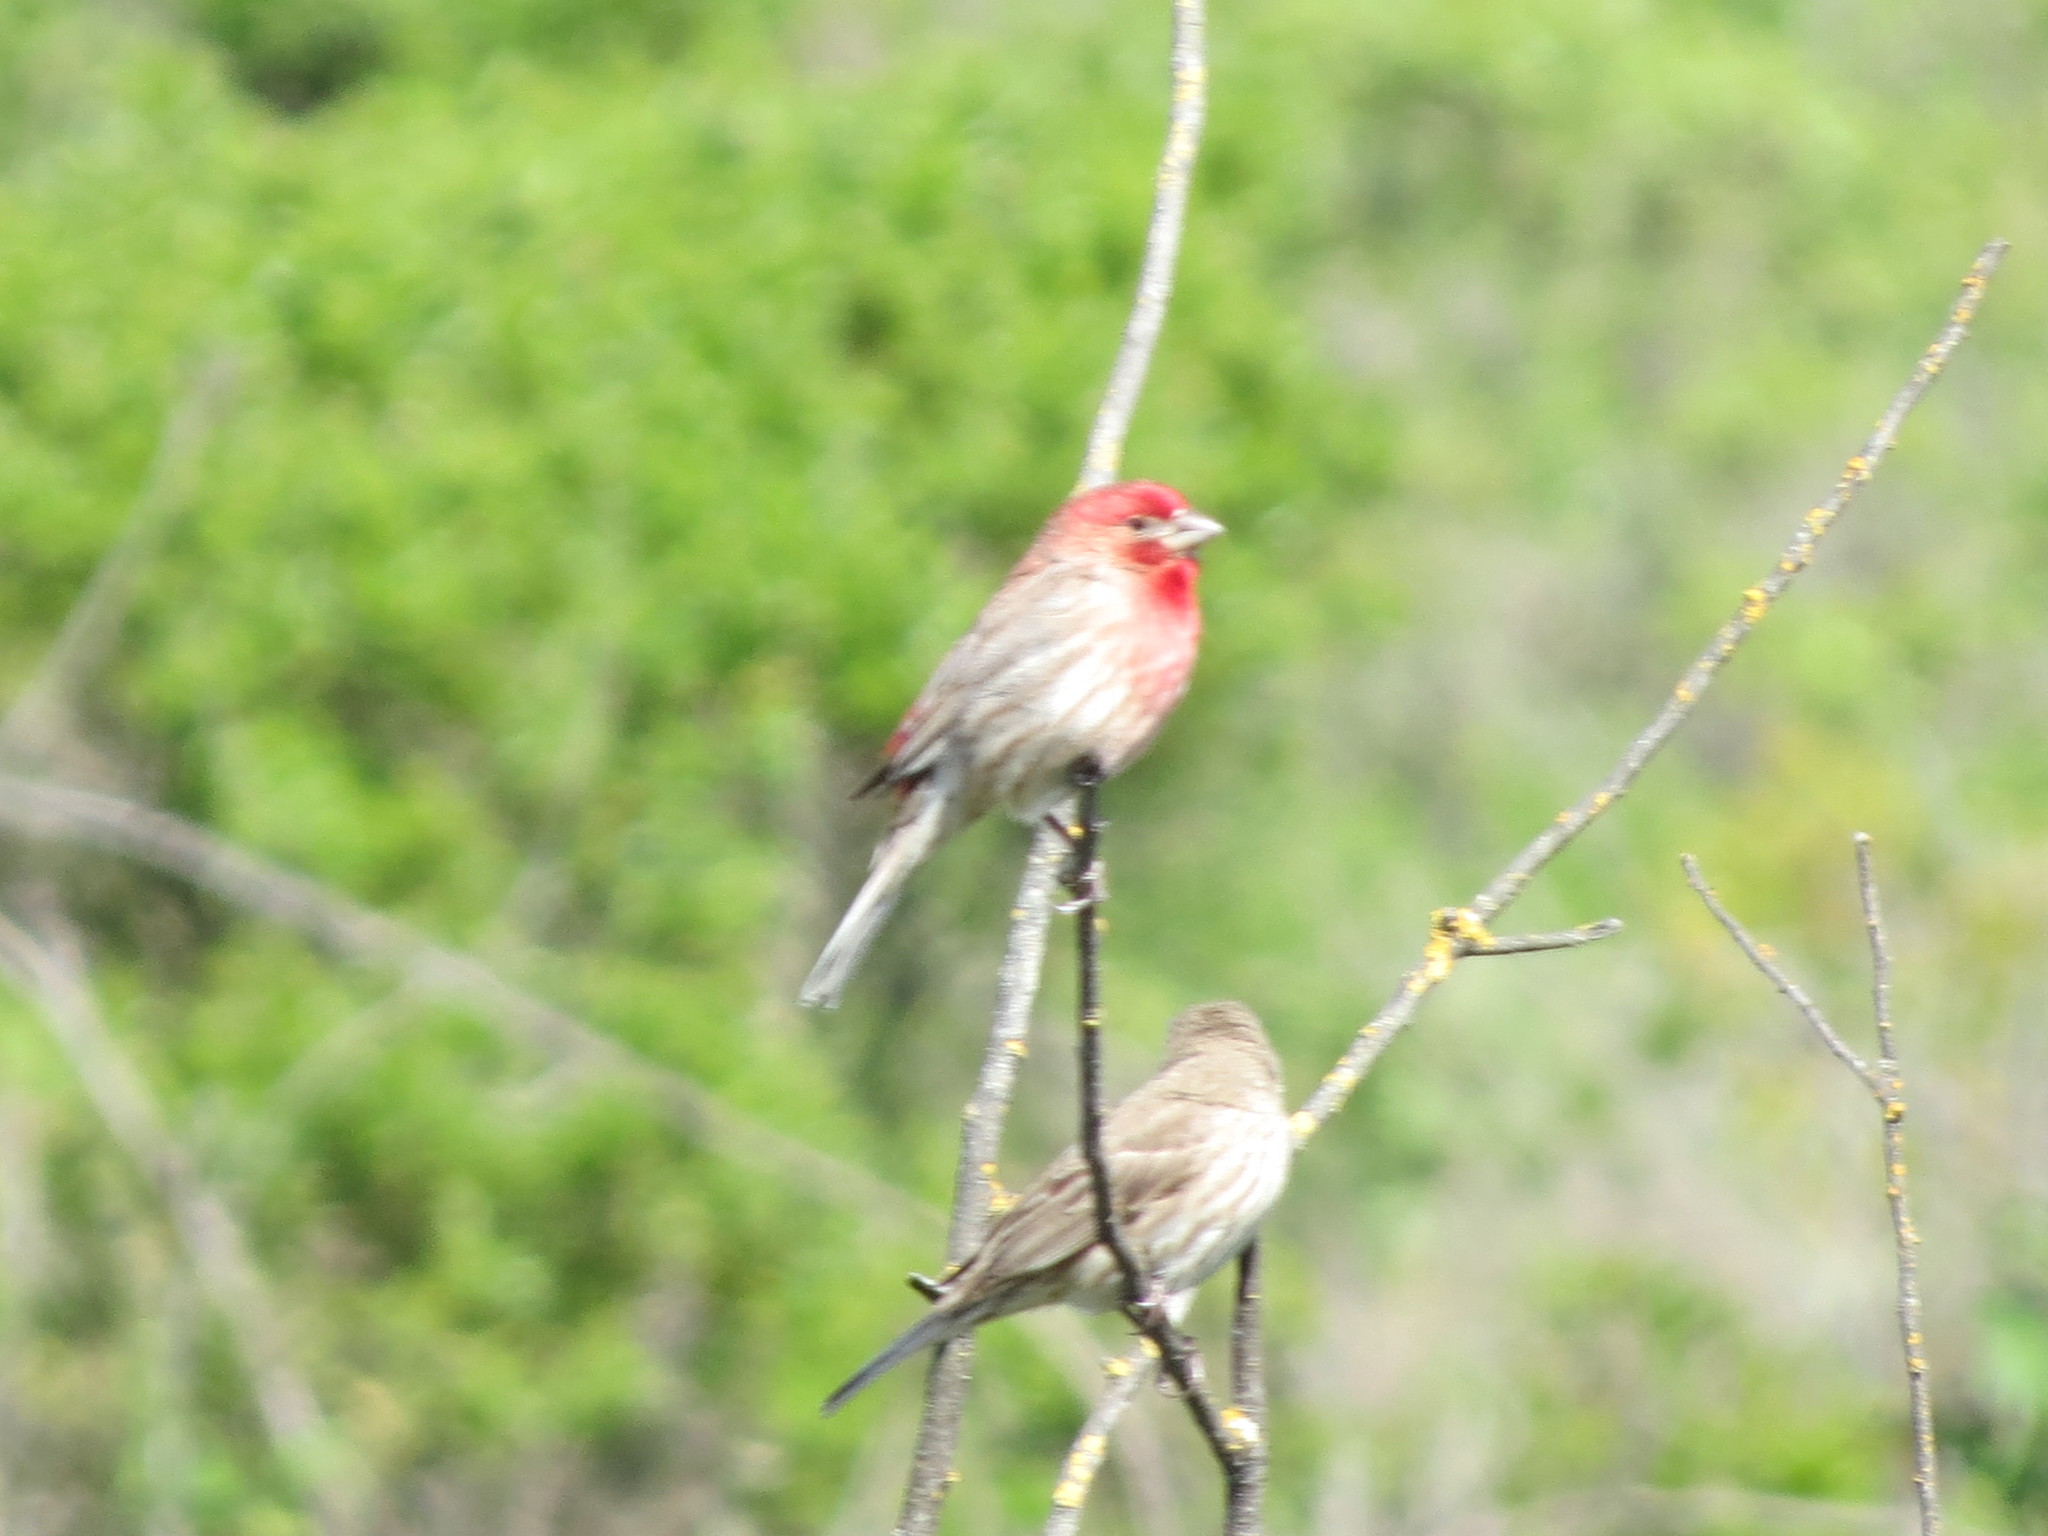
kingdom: Animalia
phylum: Chordata
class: Aves
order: Passeriformes
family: Fringillidae
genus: Haemorhous
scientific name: Haemorhous mexicanus
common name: House finch
